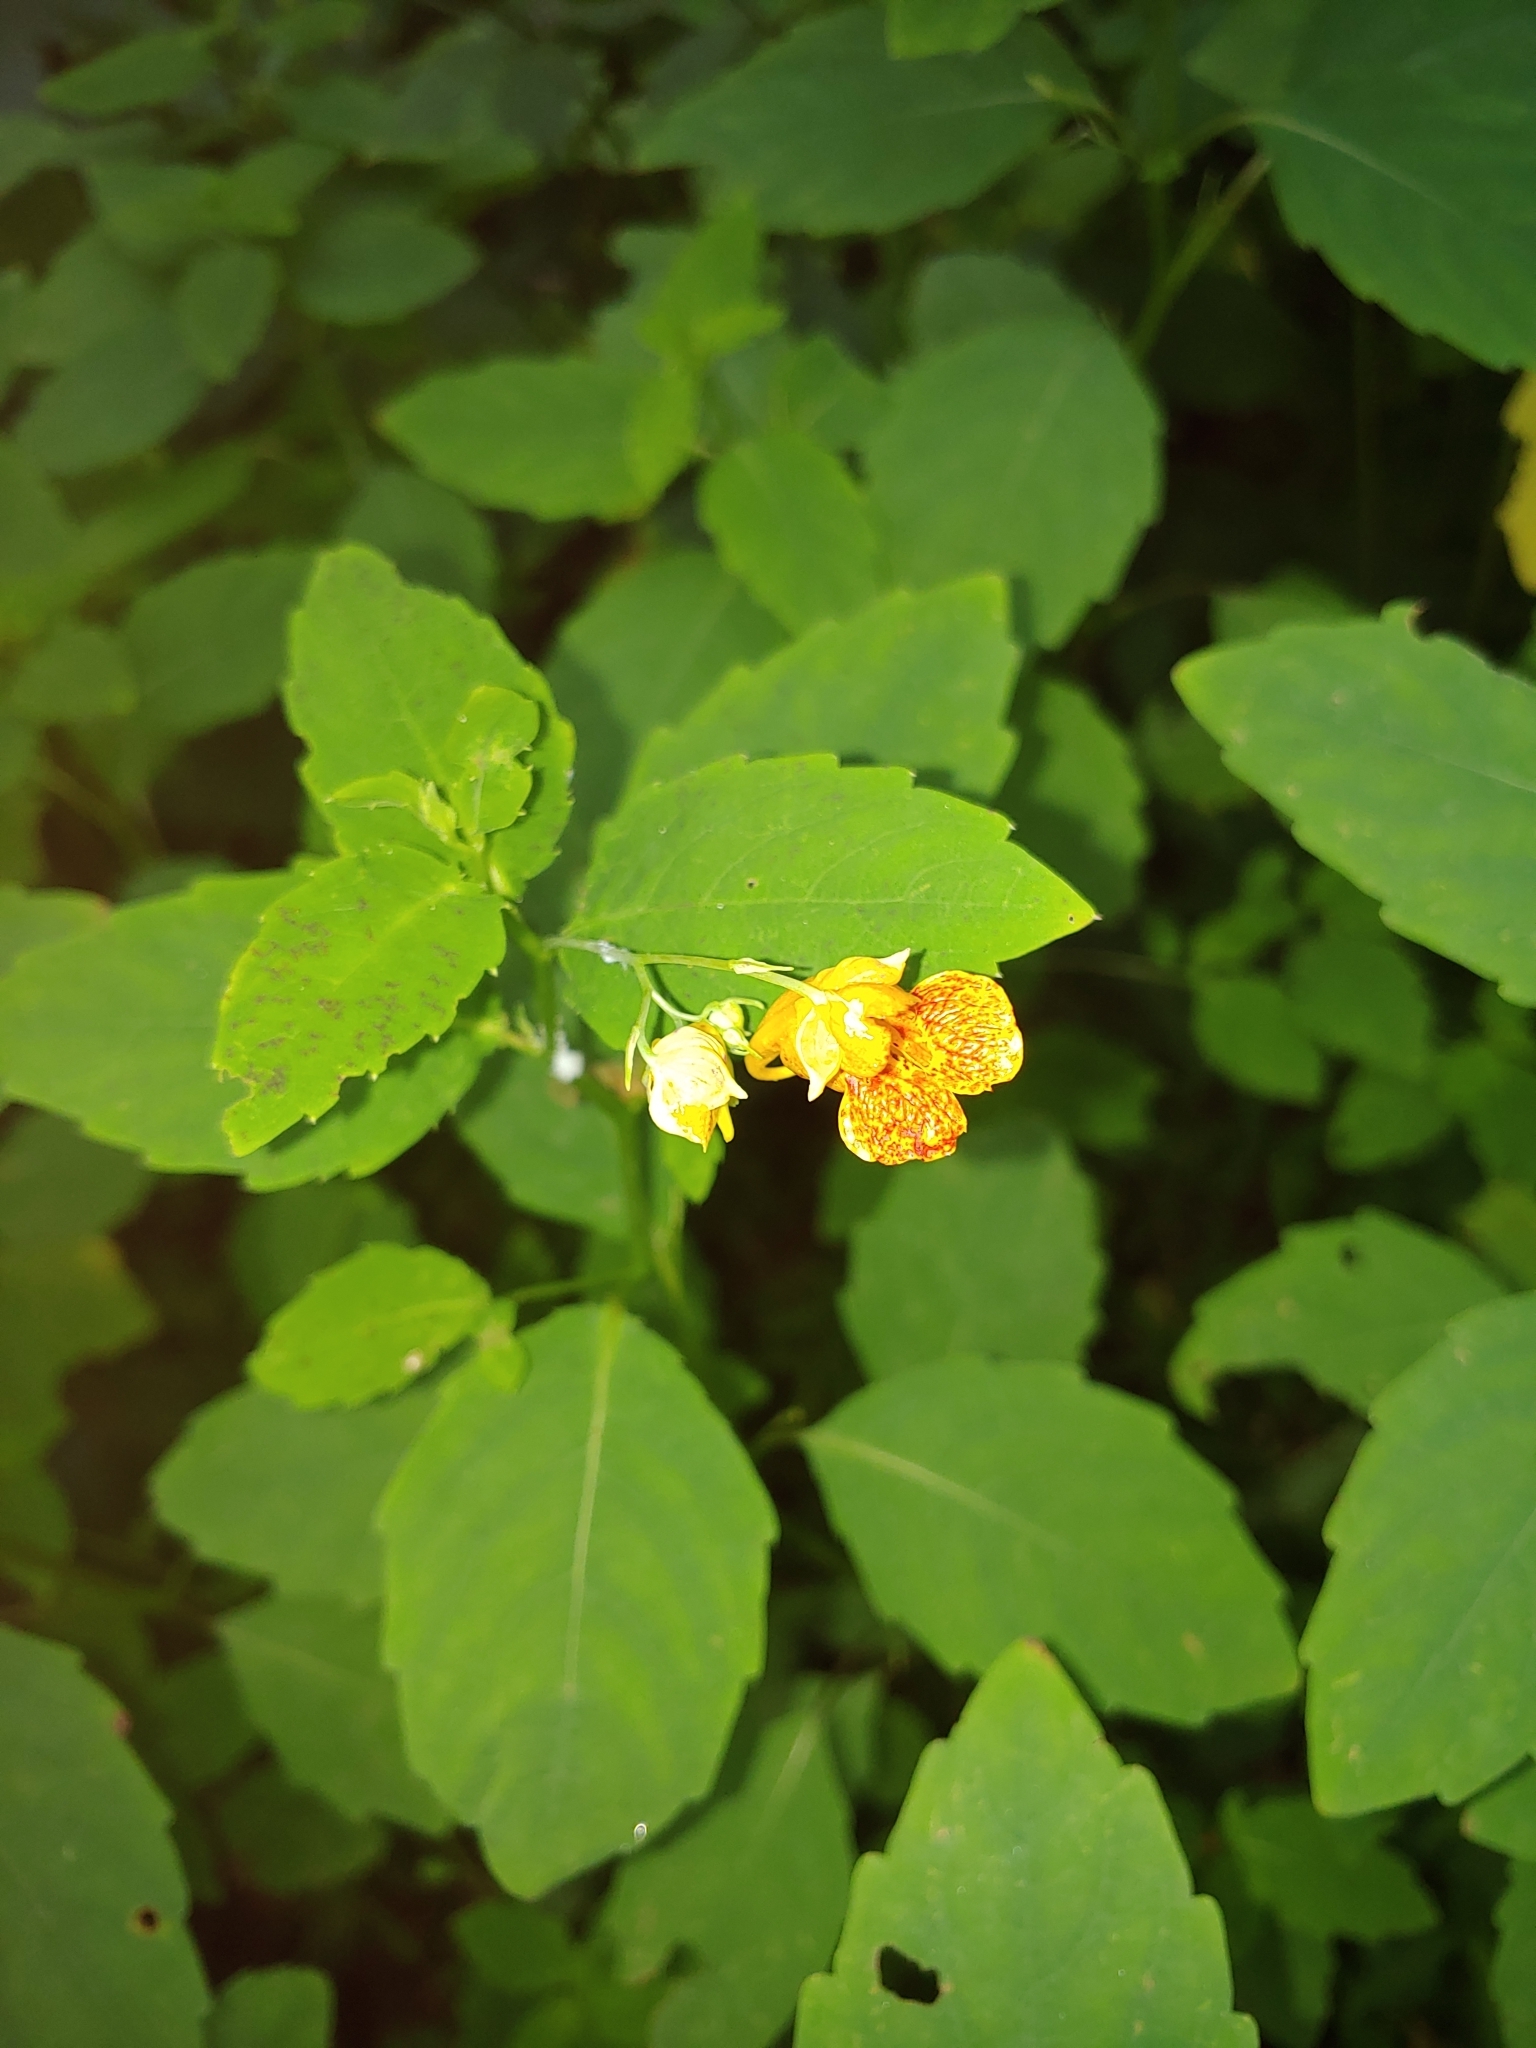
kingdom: Plantae
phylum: Tracheophyta
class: Magnoliopsida
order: Ericales
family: Balsaminaceae
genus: Impatiens
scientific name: Impatiens capensis
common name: Orange balsam
